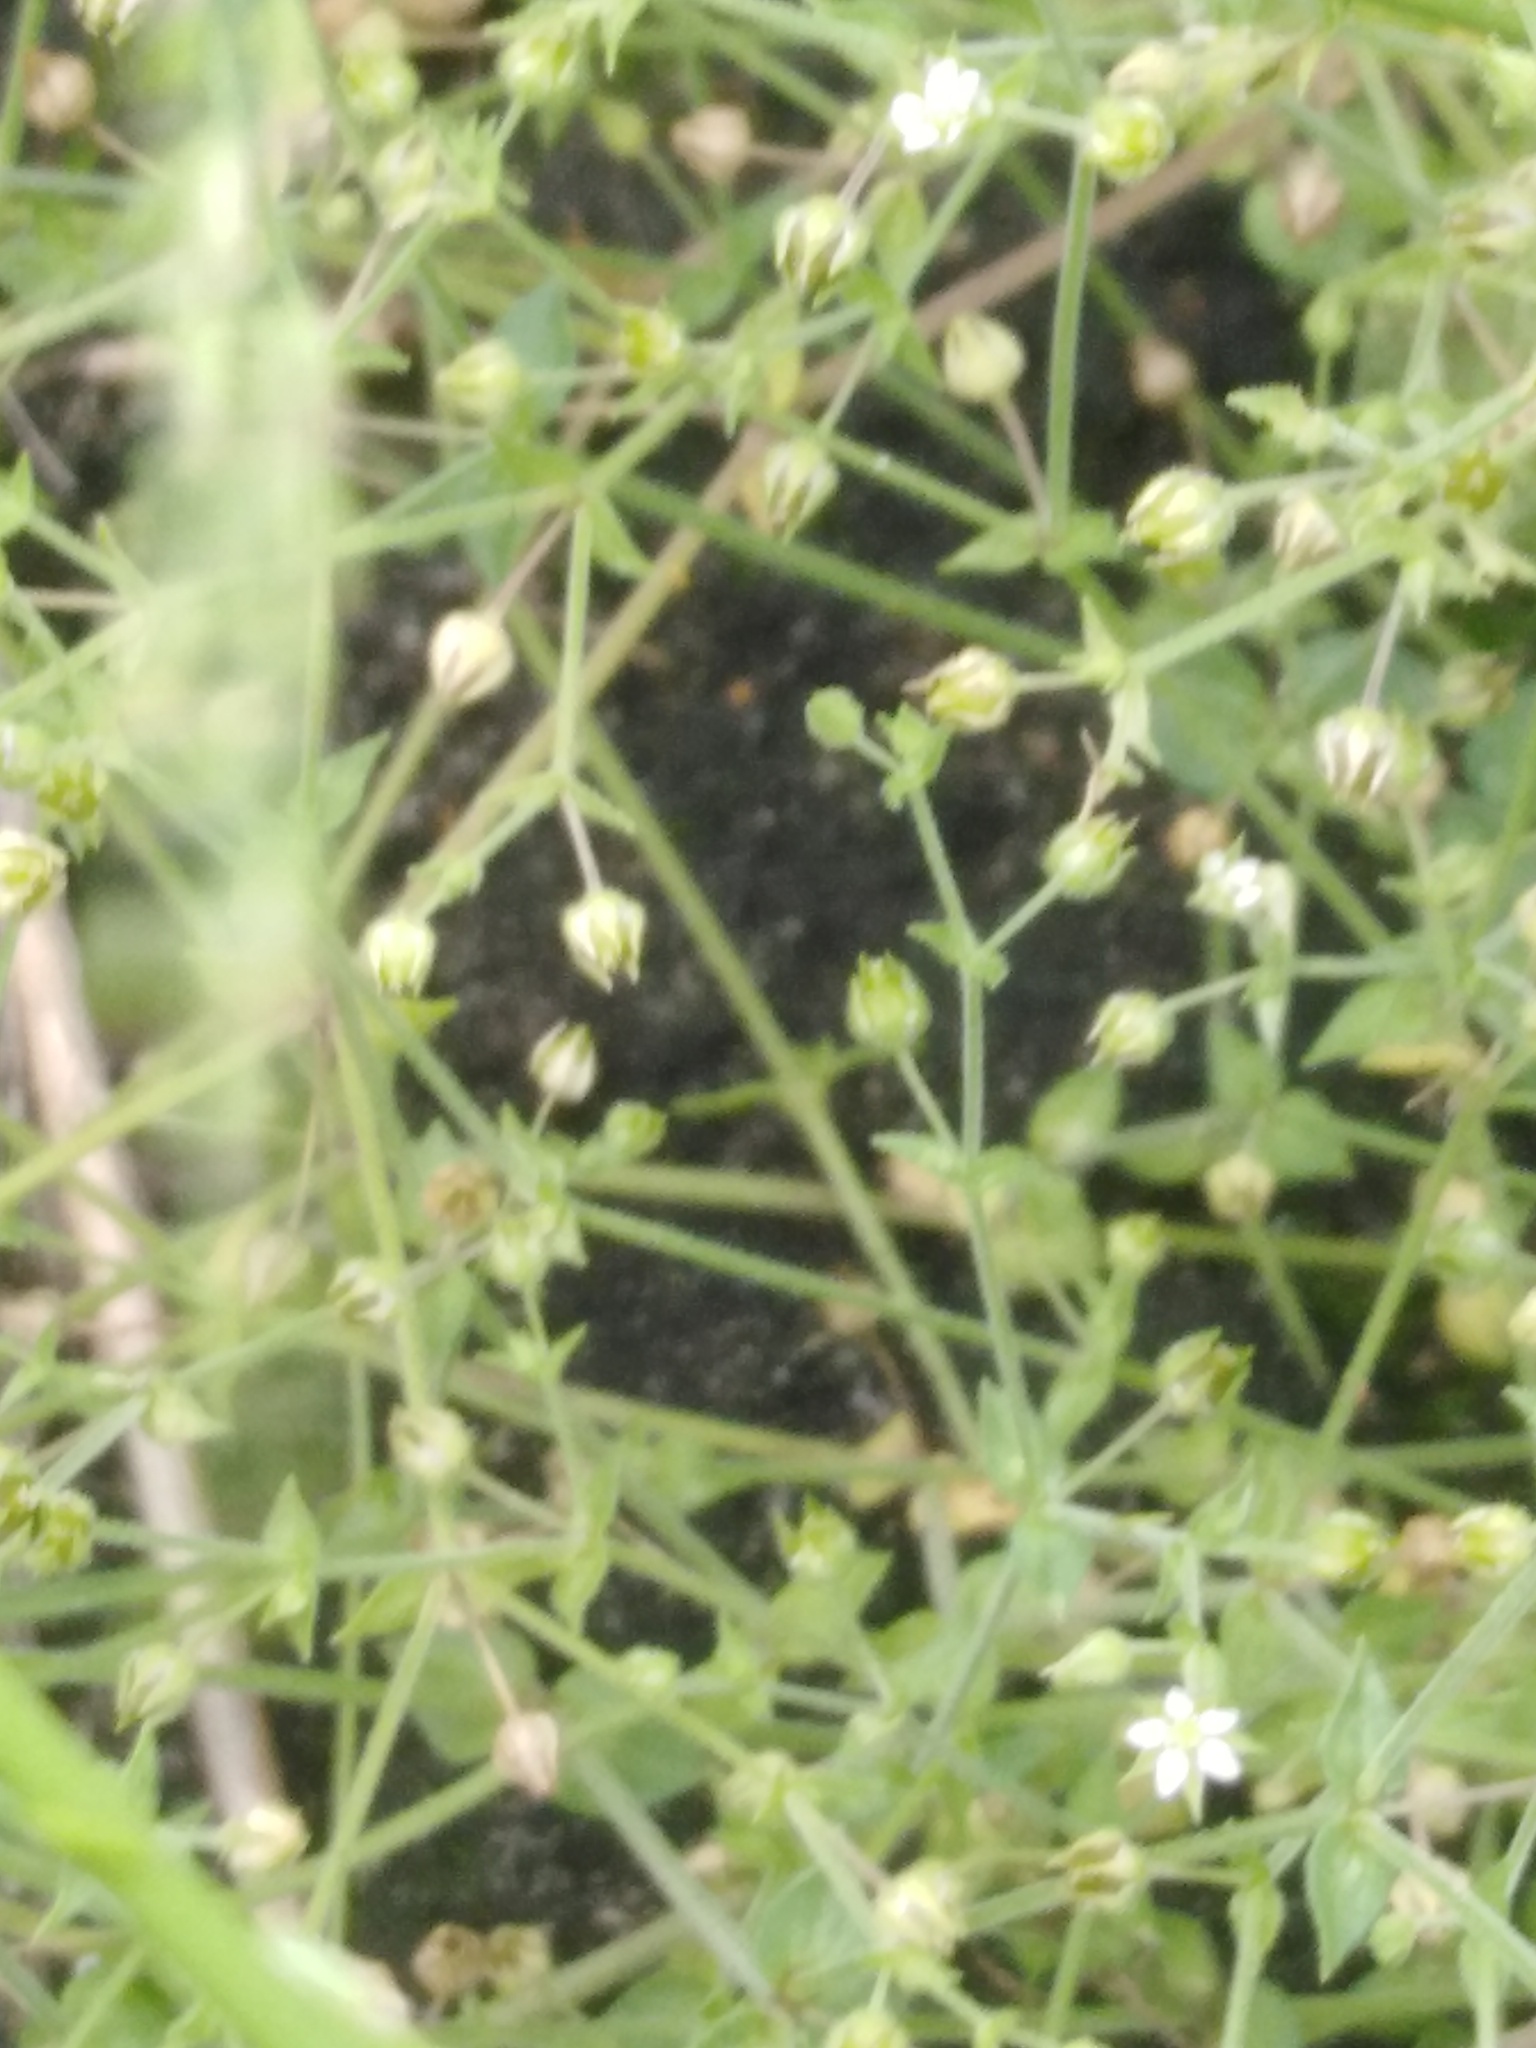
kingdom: Plantae
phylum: Tracheophyta
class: Magnoliopsida
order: Caryophyllales
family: Caryophyllaceae
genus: Arenaria
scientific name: Arenaria serpyllifolia
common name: Thyme-leaved sandwort
